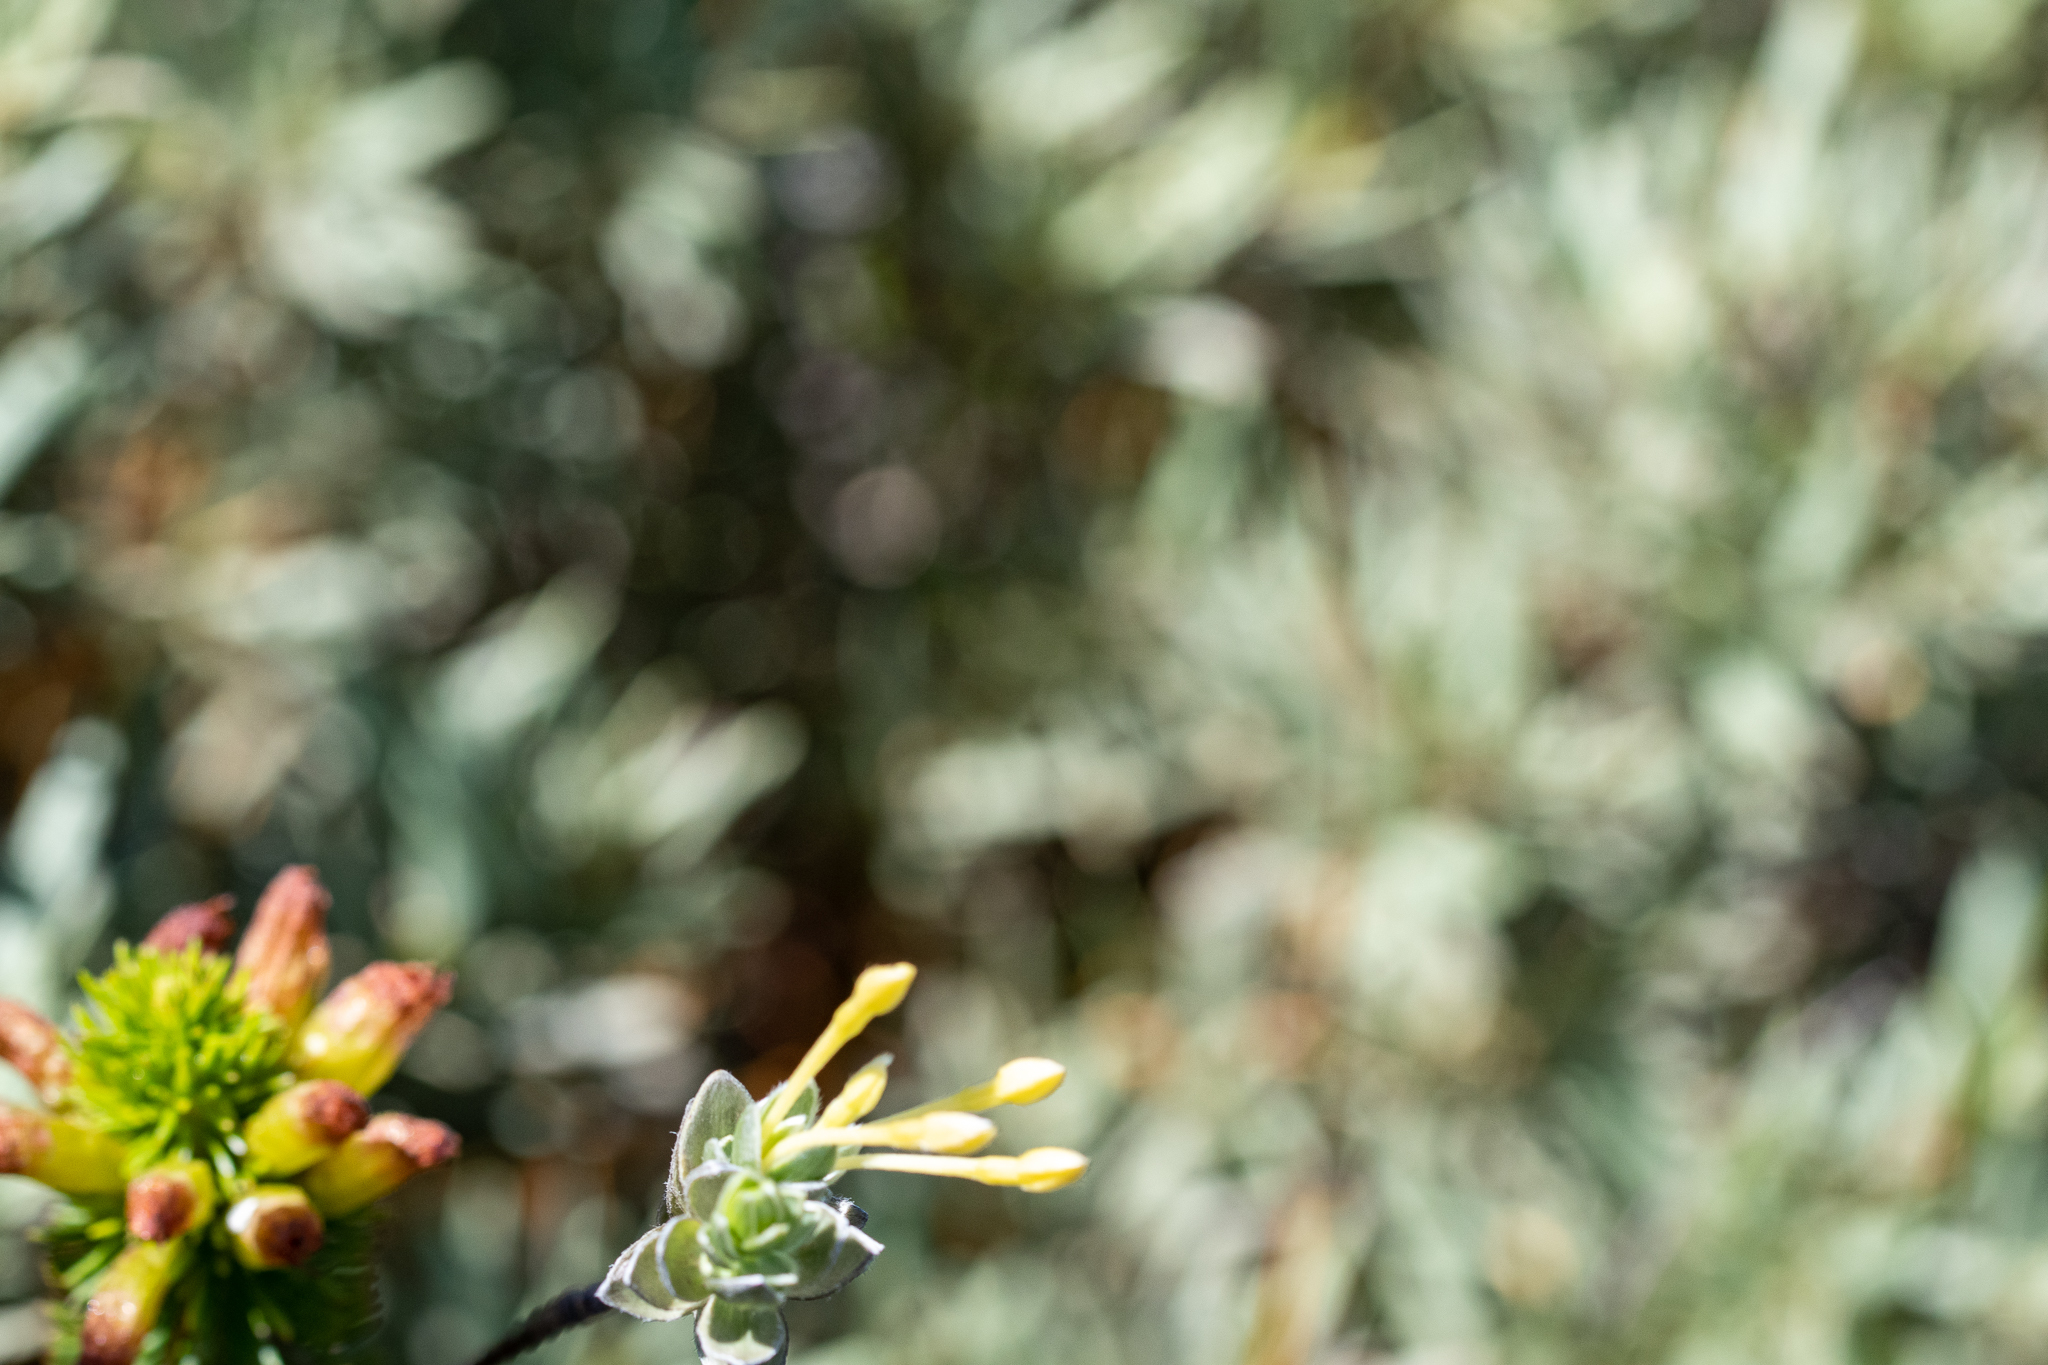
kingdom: Plantae
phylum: Tracheophyta
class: Magnoliopsida
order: Malvales
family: Thymelaeaceae
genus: Gnidia
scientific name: Gnidia anomala
